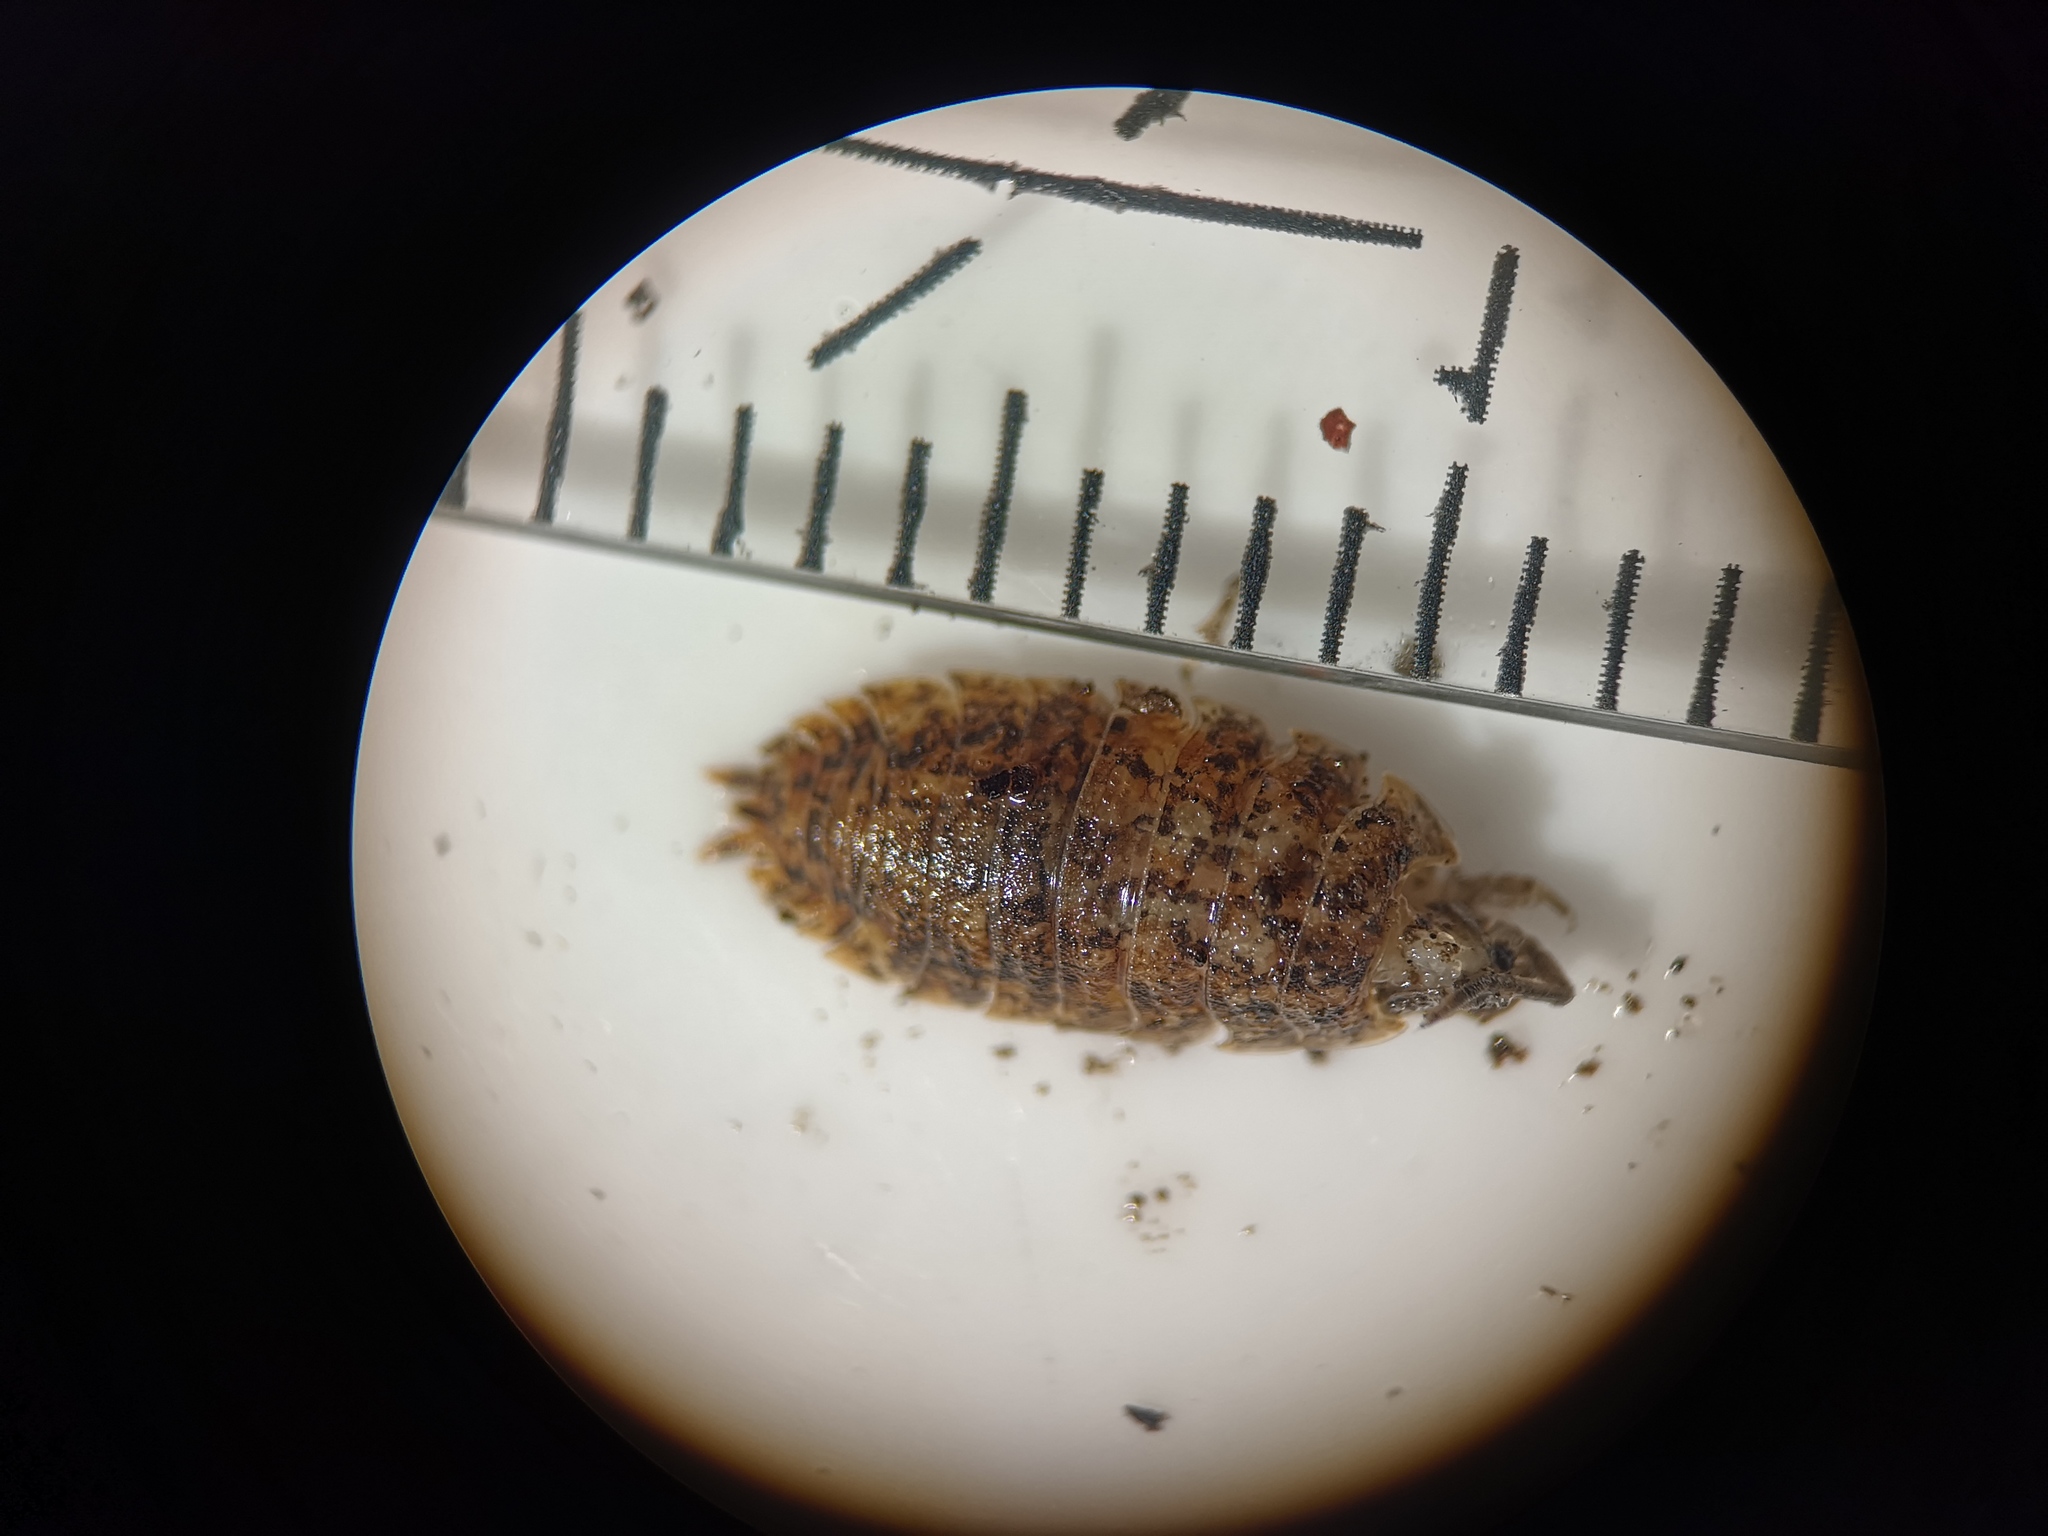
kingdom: Animalia
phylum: Arthropoda
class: Malacostraca
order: Isopoda
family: Porcellionidae
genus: Porcellio
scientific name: Porcellio scaber
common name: Common rough woodlouse
